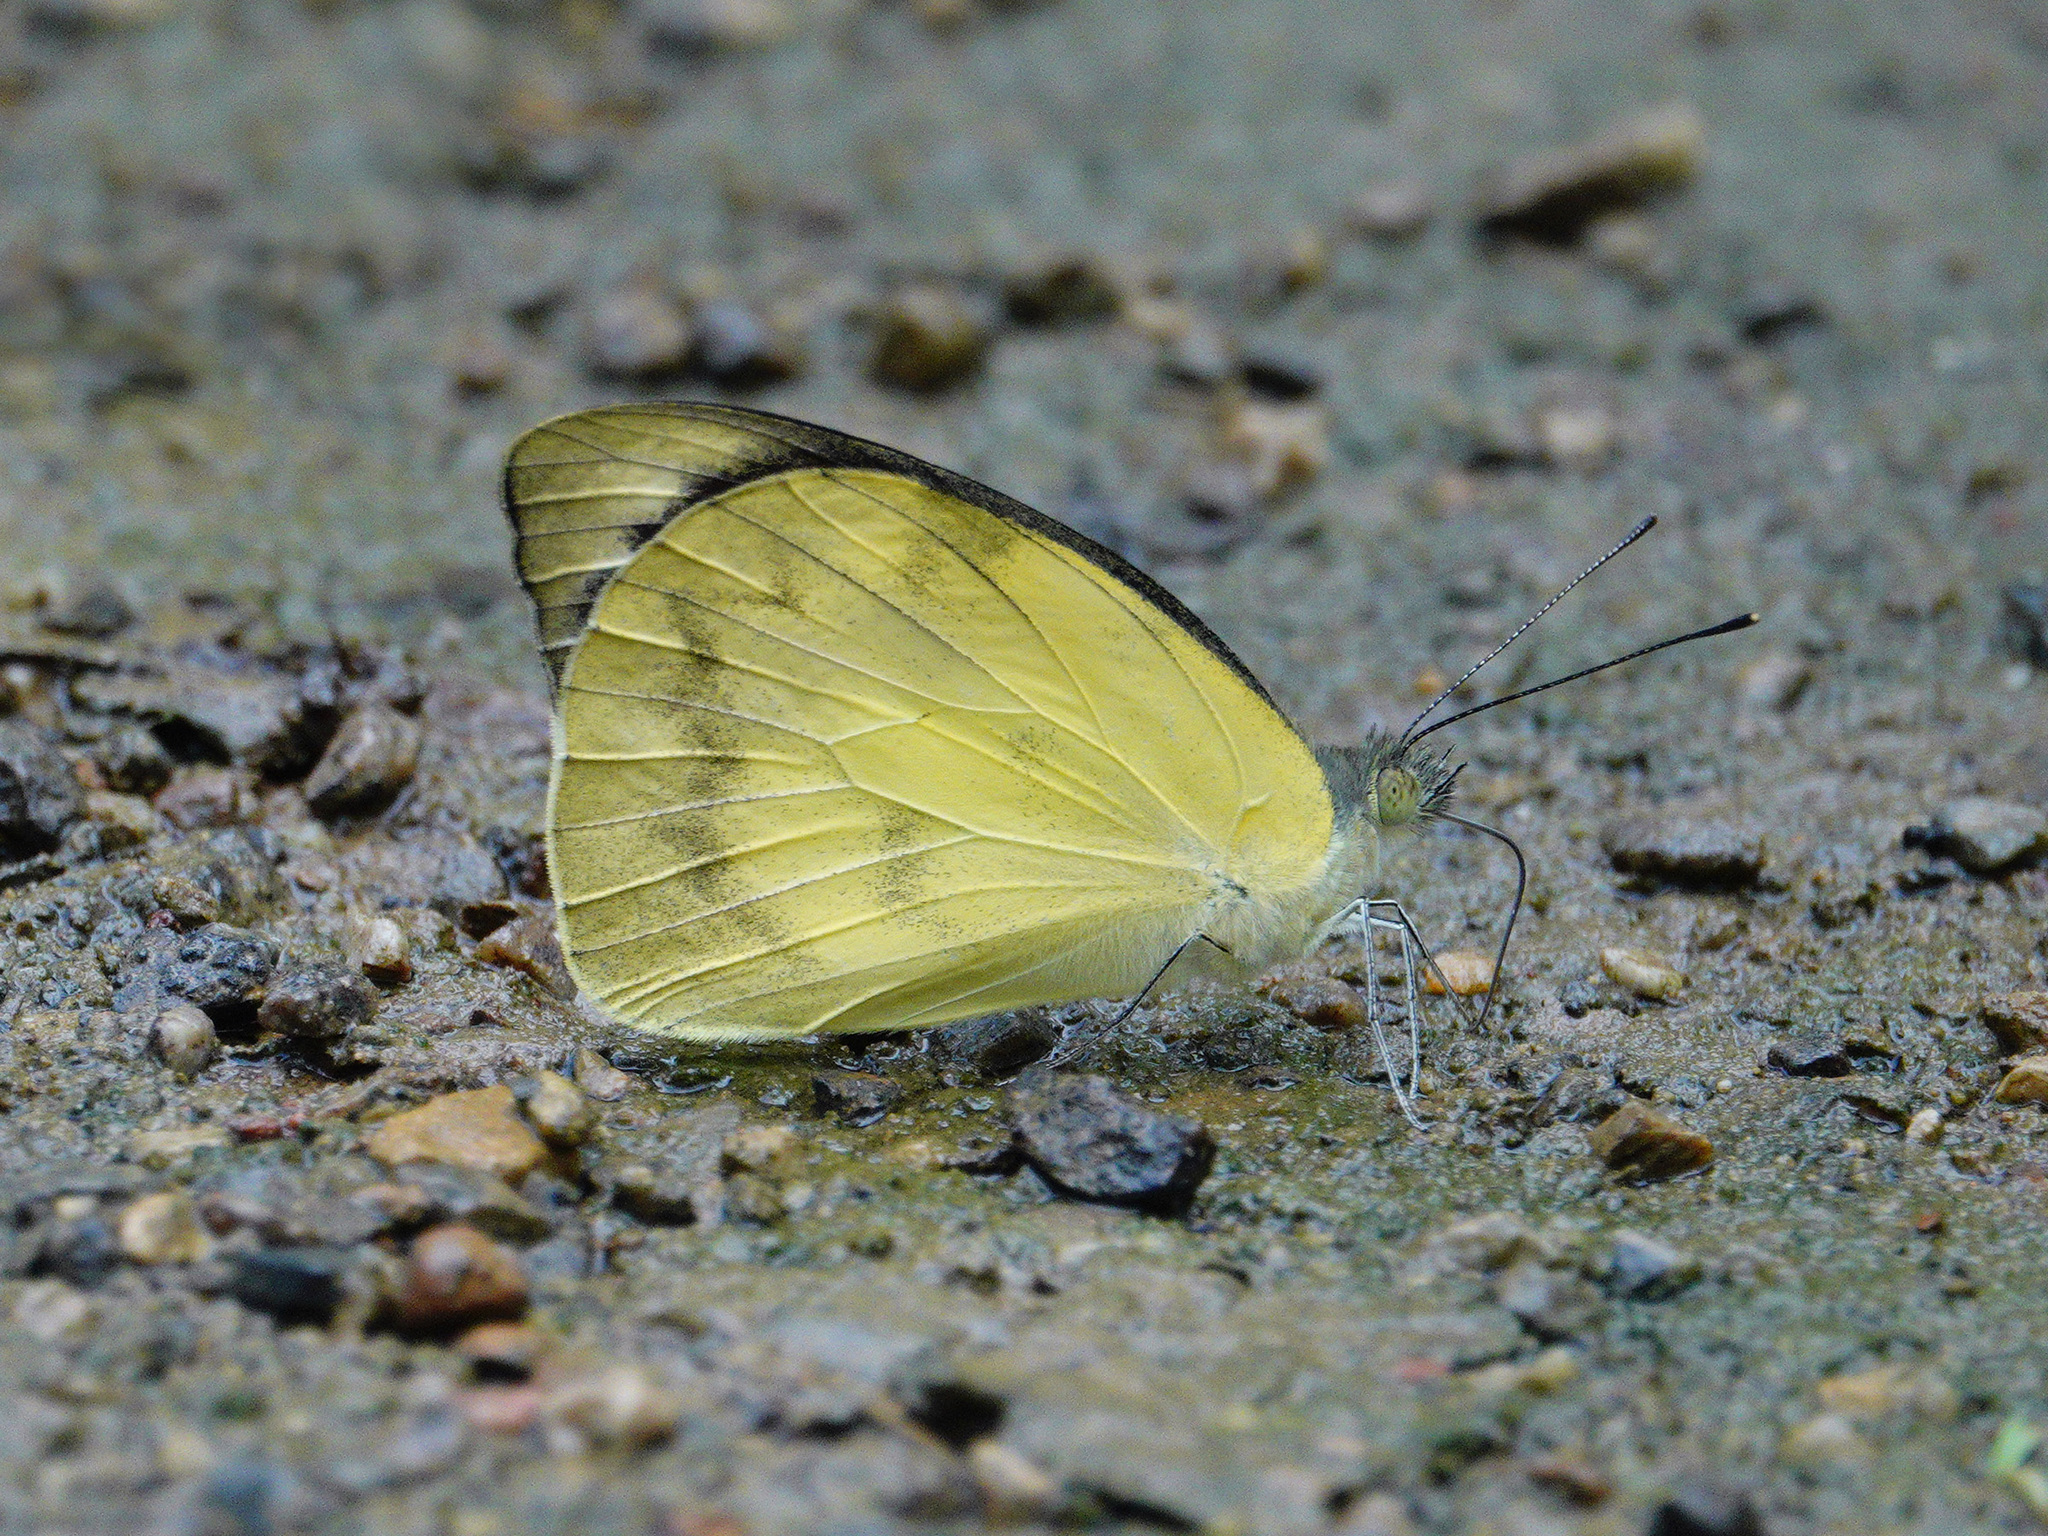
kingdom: Animalia
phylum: Arthropoda
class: Insecta
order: Lepidoptera
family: Pieridae
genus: Appias
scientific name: Appias pandione
